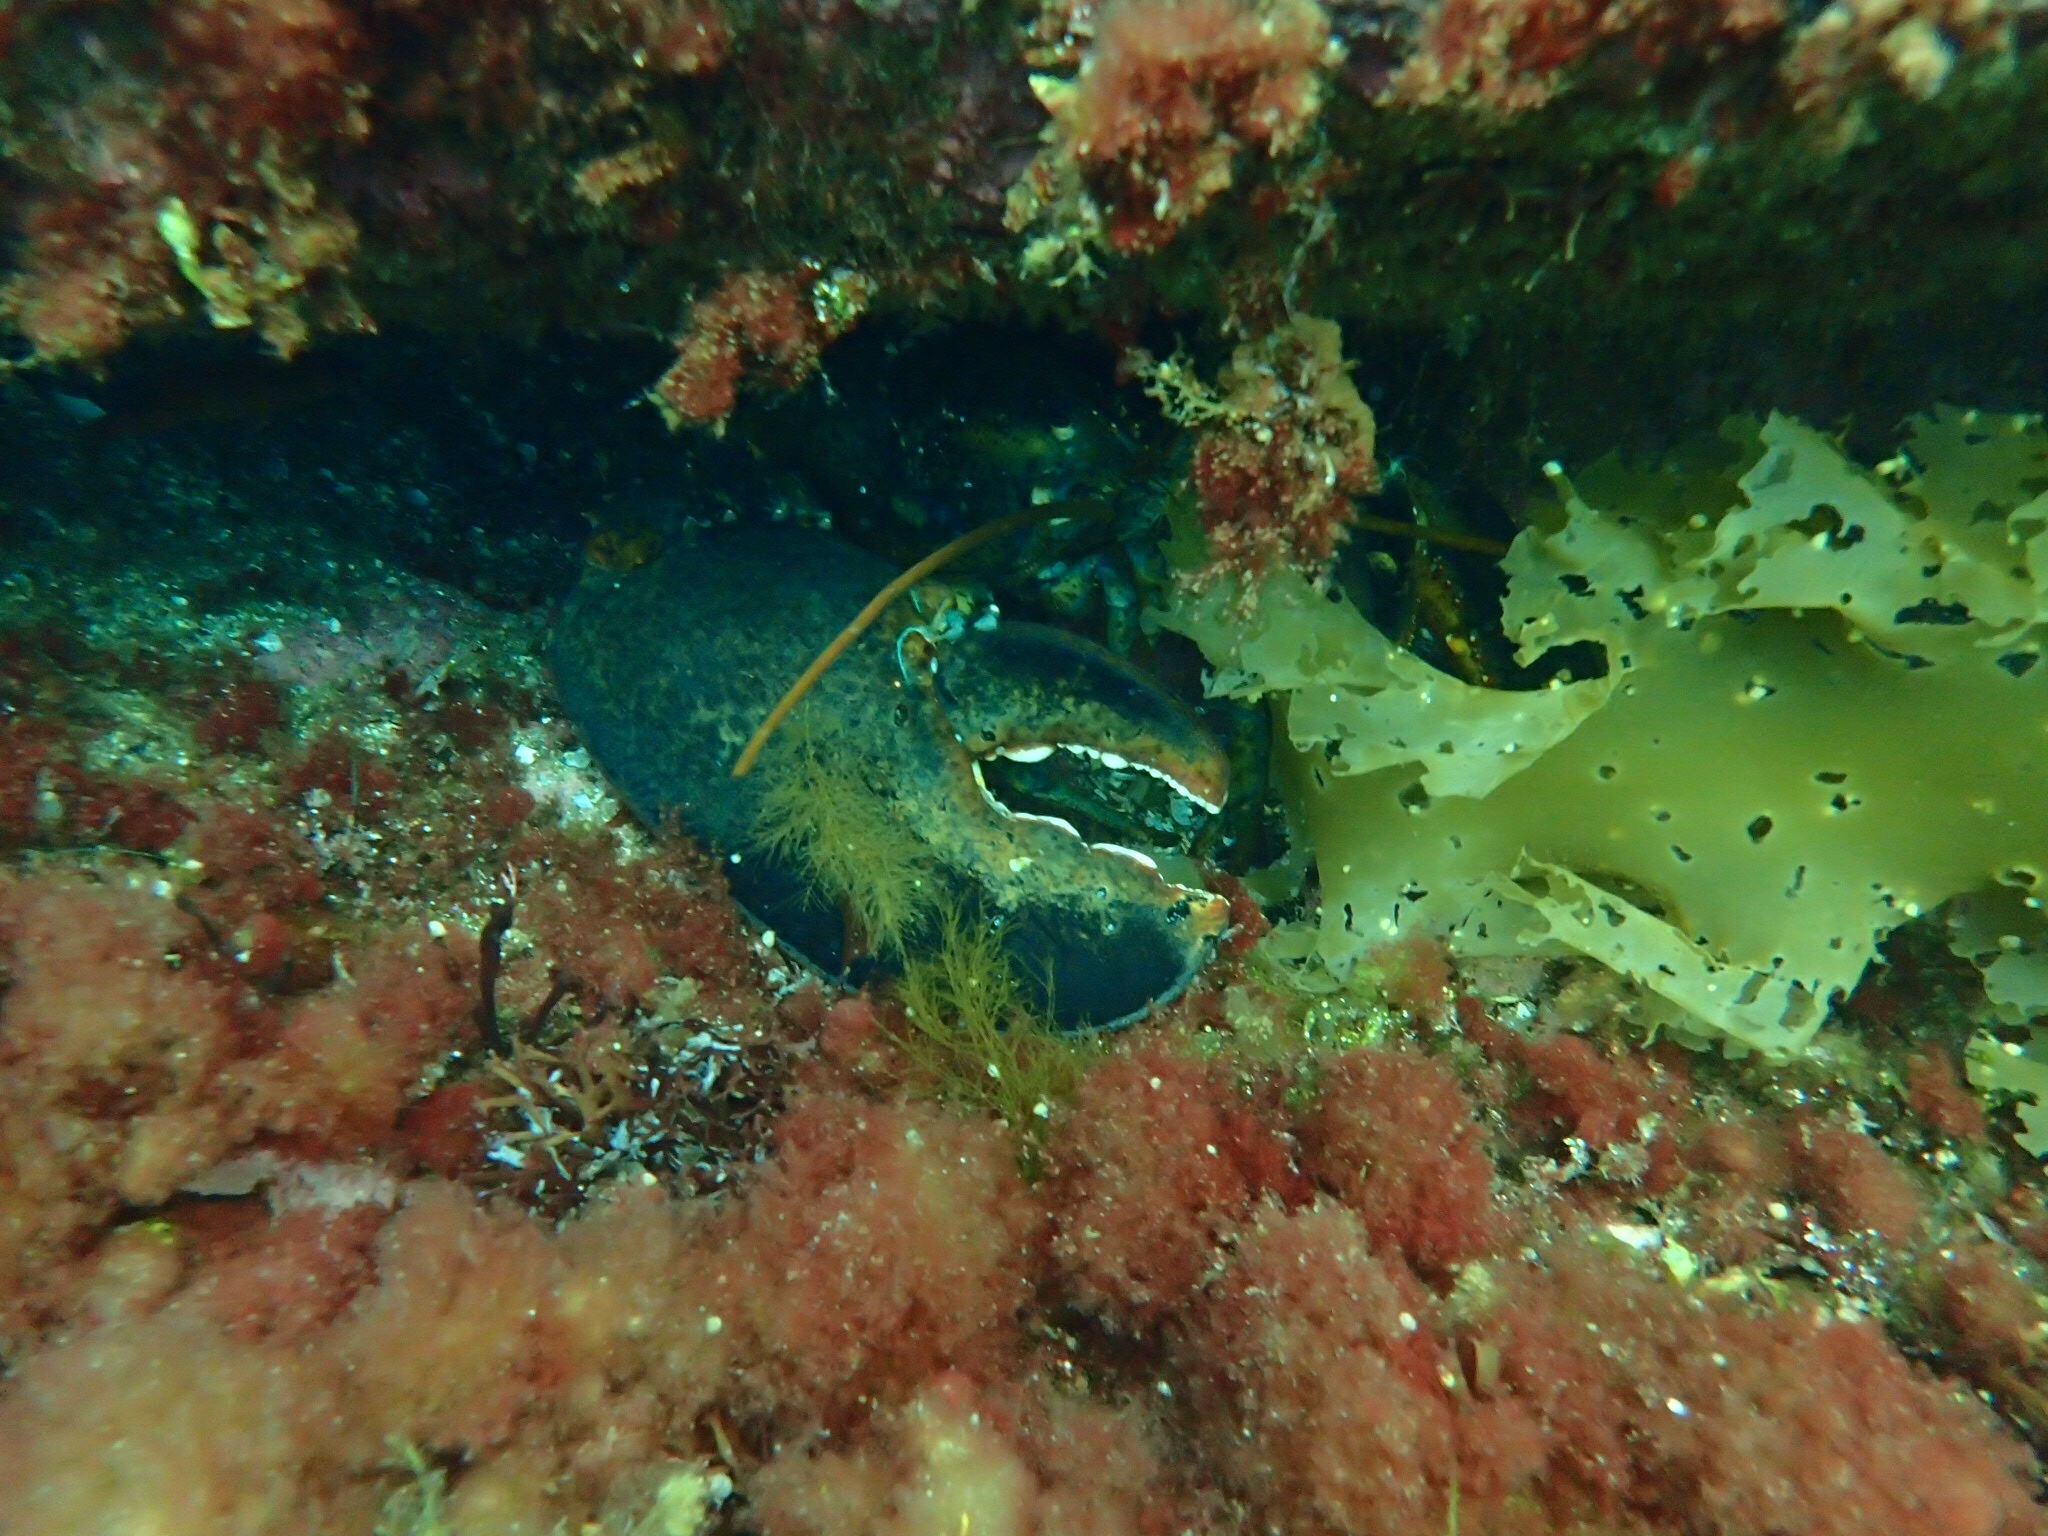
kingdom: Animalia
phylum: Arthropoda
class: Malacostraca
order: Decapoda
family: Nephropidae
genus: Homarus
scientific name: Homarus americanus
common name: American lobster
